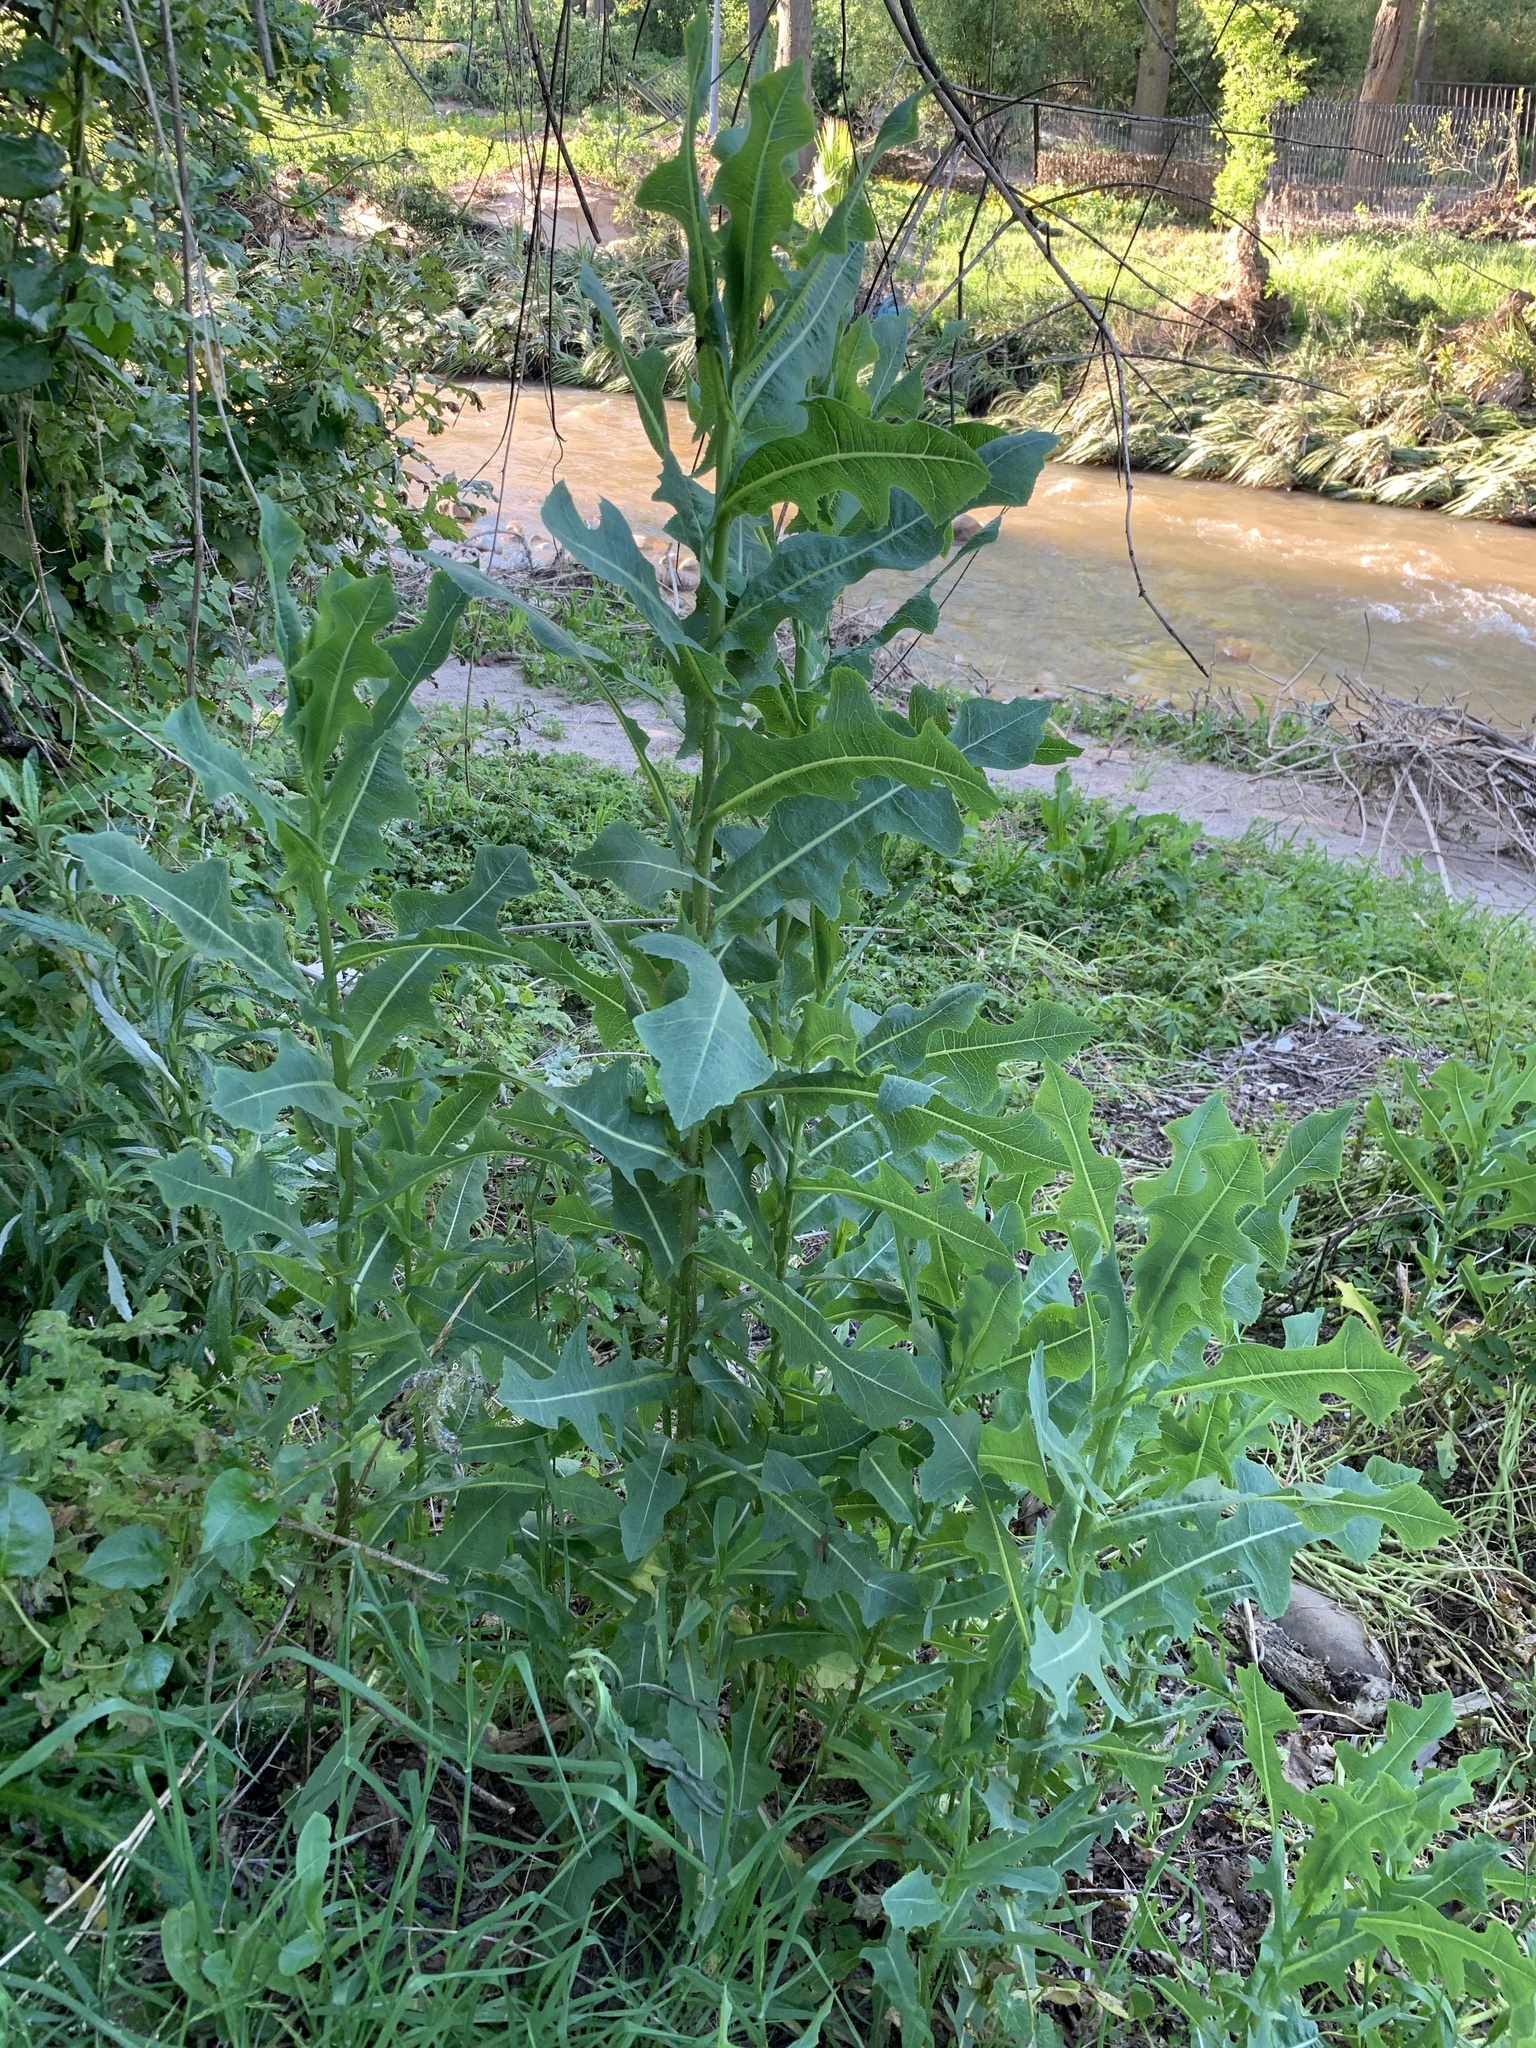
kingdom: Plantae
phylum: Tracheophyta
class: Magnoliopsida
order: Asterales
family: Asteraceae
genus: Lactuca
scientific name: Lactuca serriola
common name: Prickly lettuce
